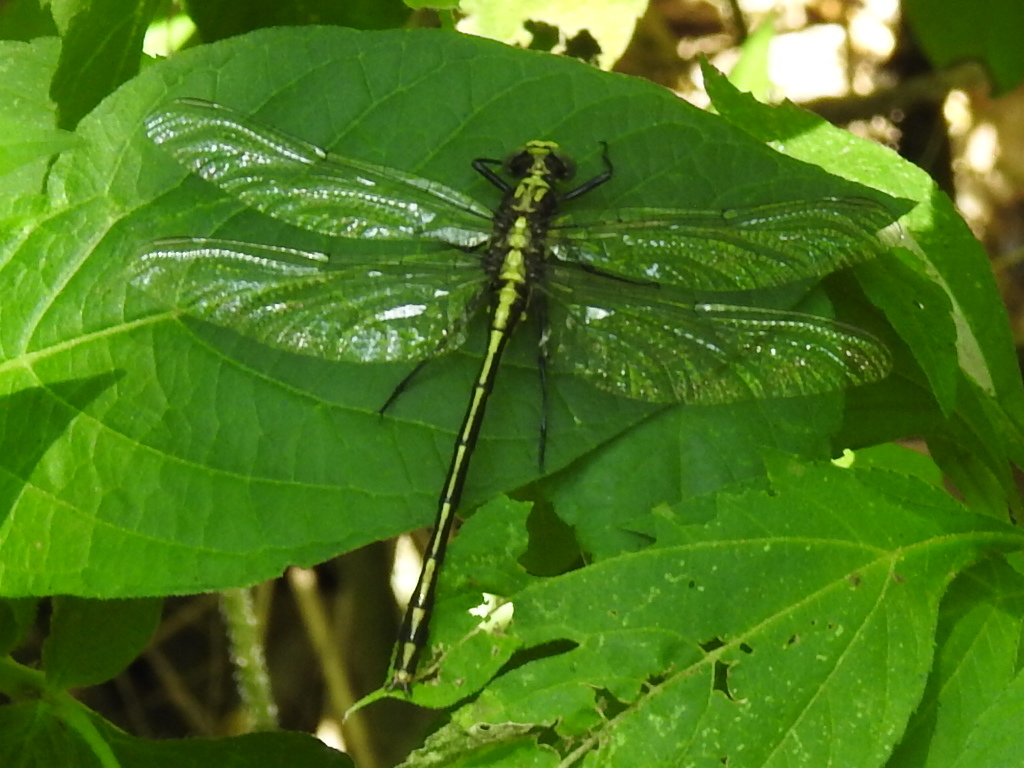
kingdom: Animalia
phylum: Arthropoda
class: Insecta
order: Odonata
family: Gomphidae
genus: Dromogomphus
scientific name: Dromogomphus spinosus
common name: Black-shouldered spinyleg
